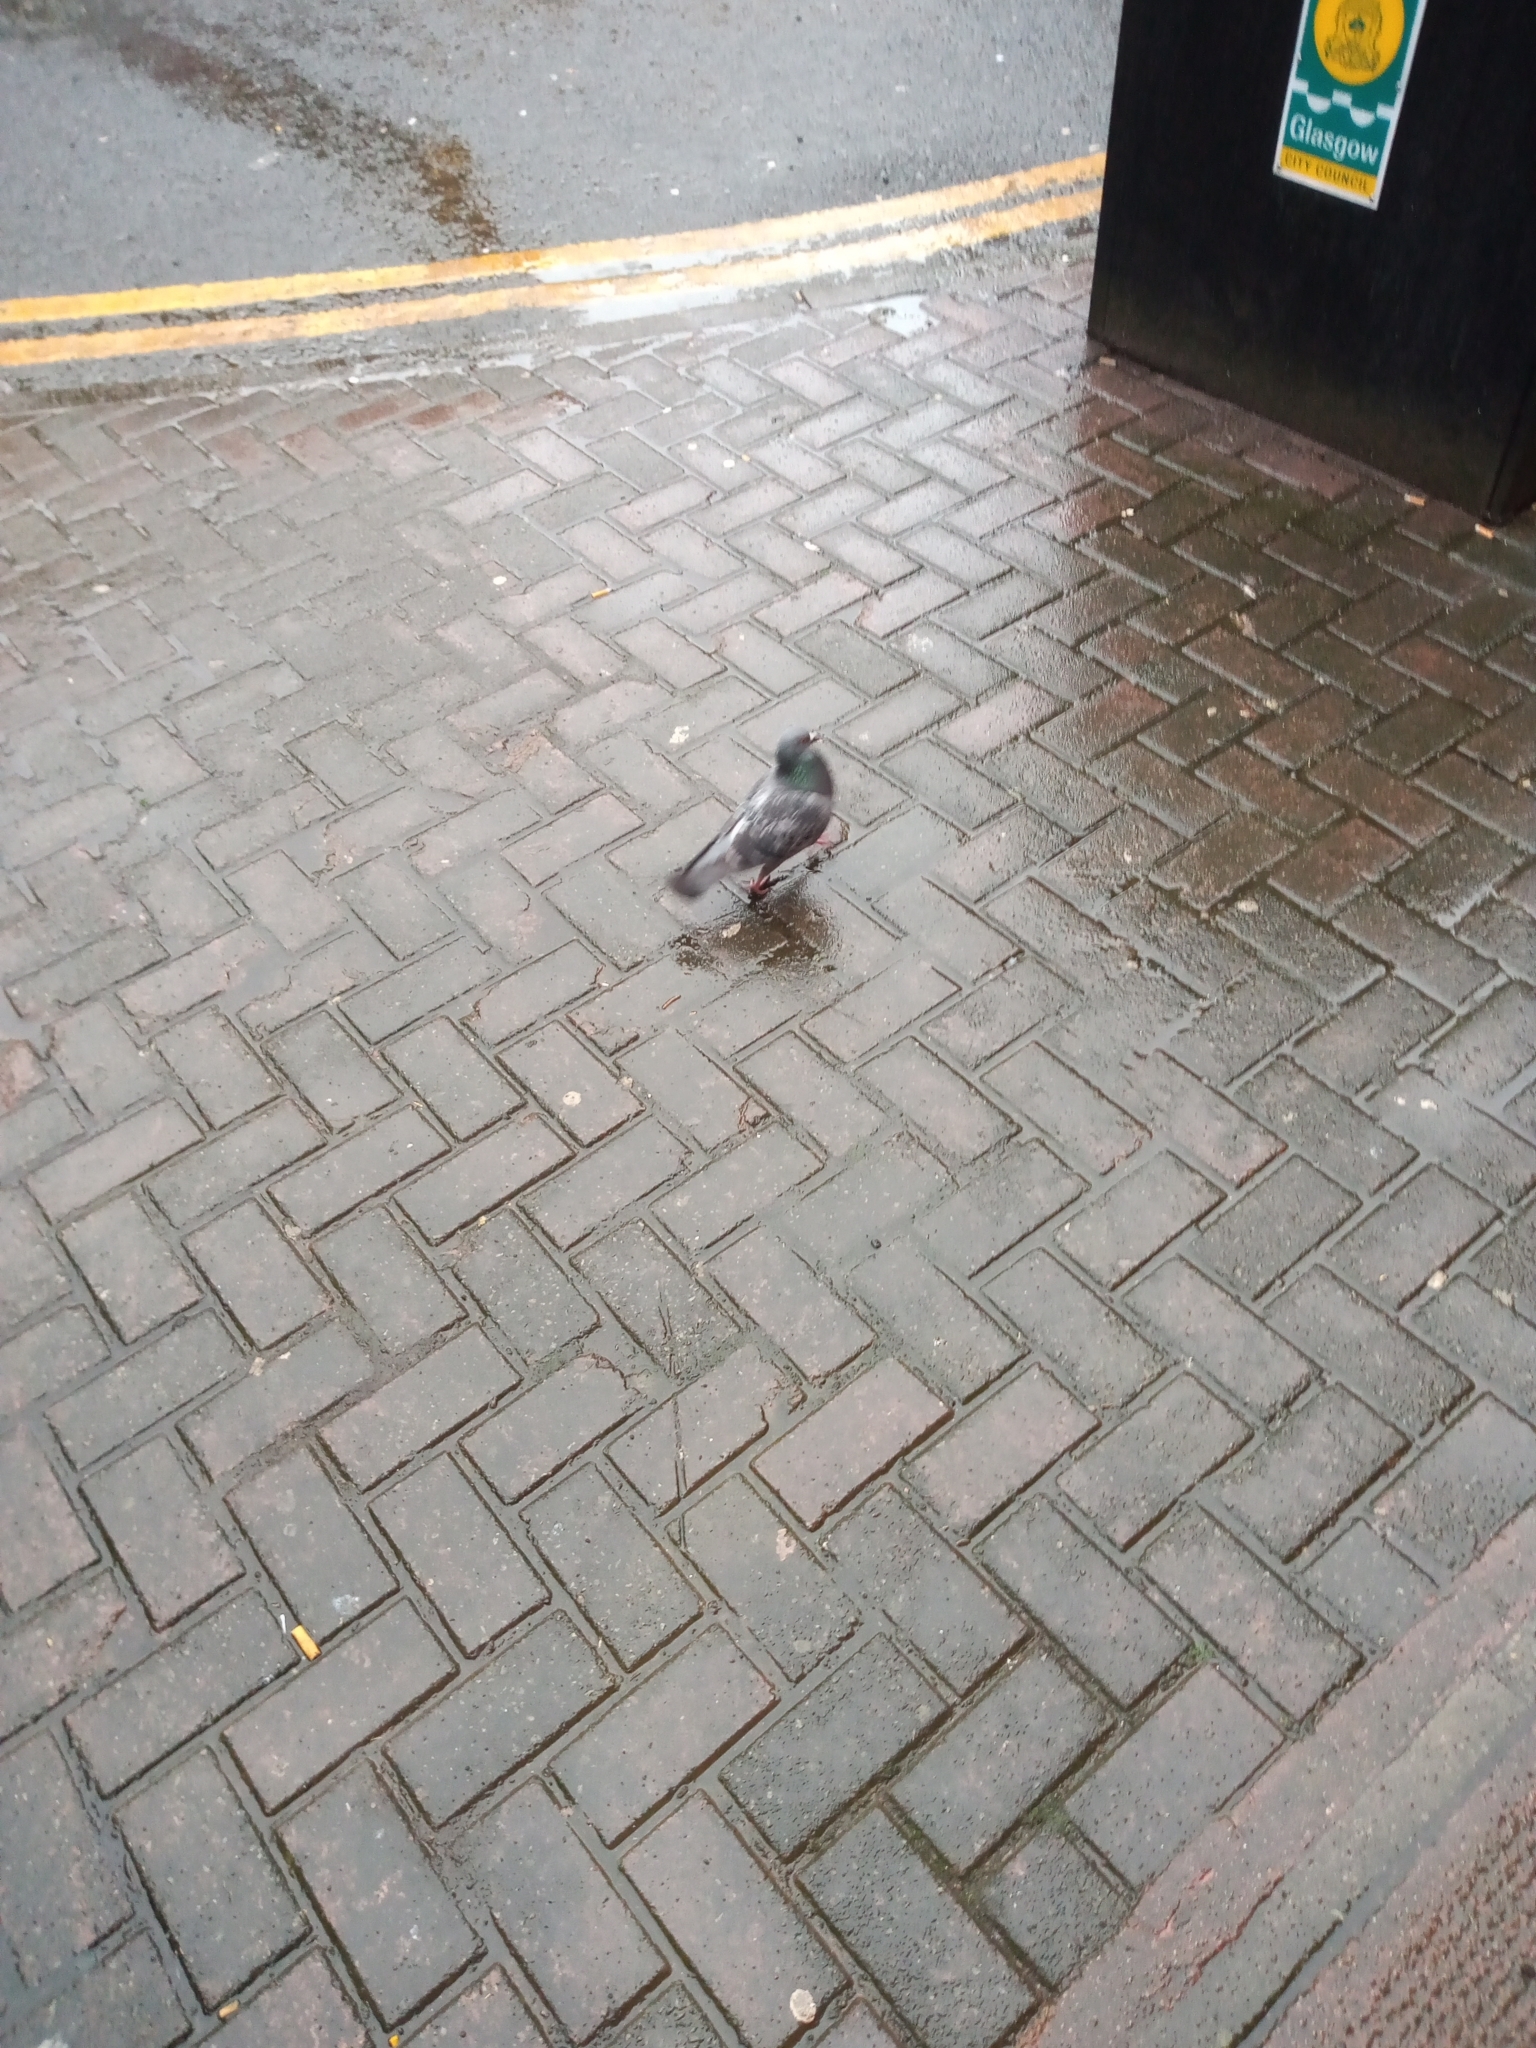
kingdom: Animalia
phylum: Chordata
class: Aves
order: Columbiformes
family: Columbidae
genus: Columba
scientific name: Columba livia
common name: Rock pigeon
